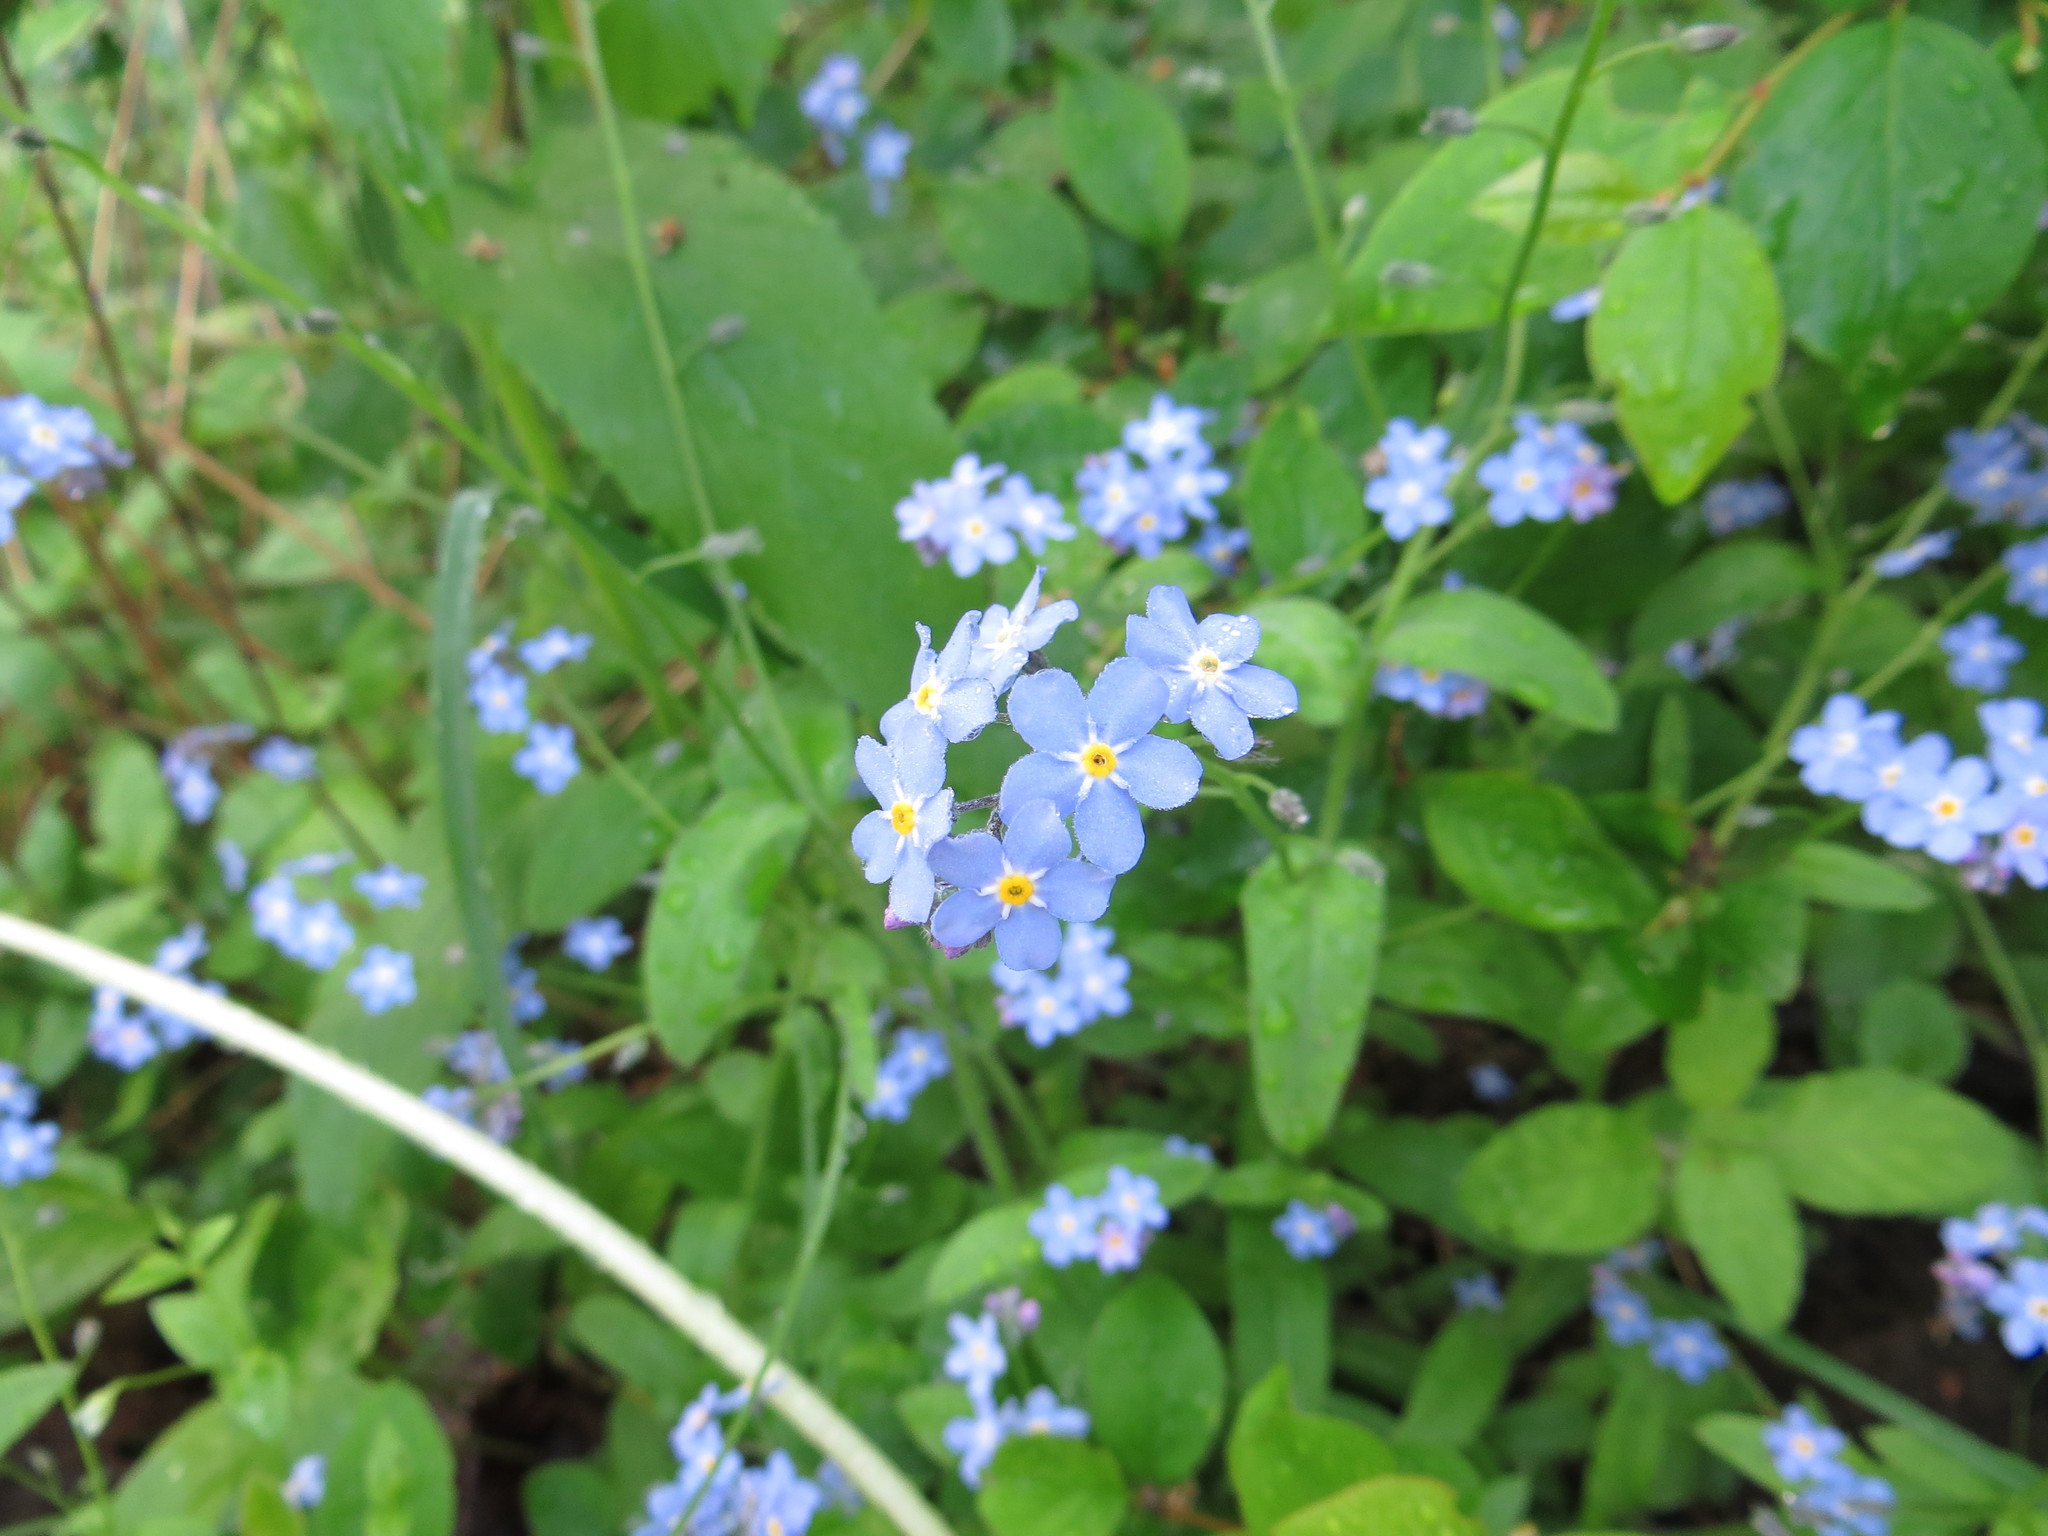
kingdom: Plantae
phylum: Tracheophyta
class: Magnoliopsida
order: Boraginales
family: Boraginaceae
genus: Myosotis
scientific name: Myosotis sylvatica
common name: Wood forget-me-not
